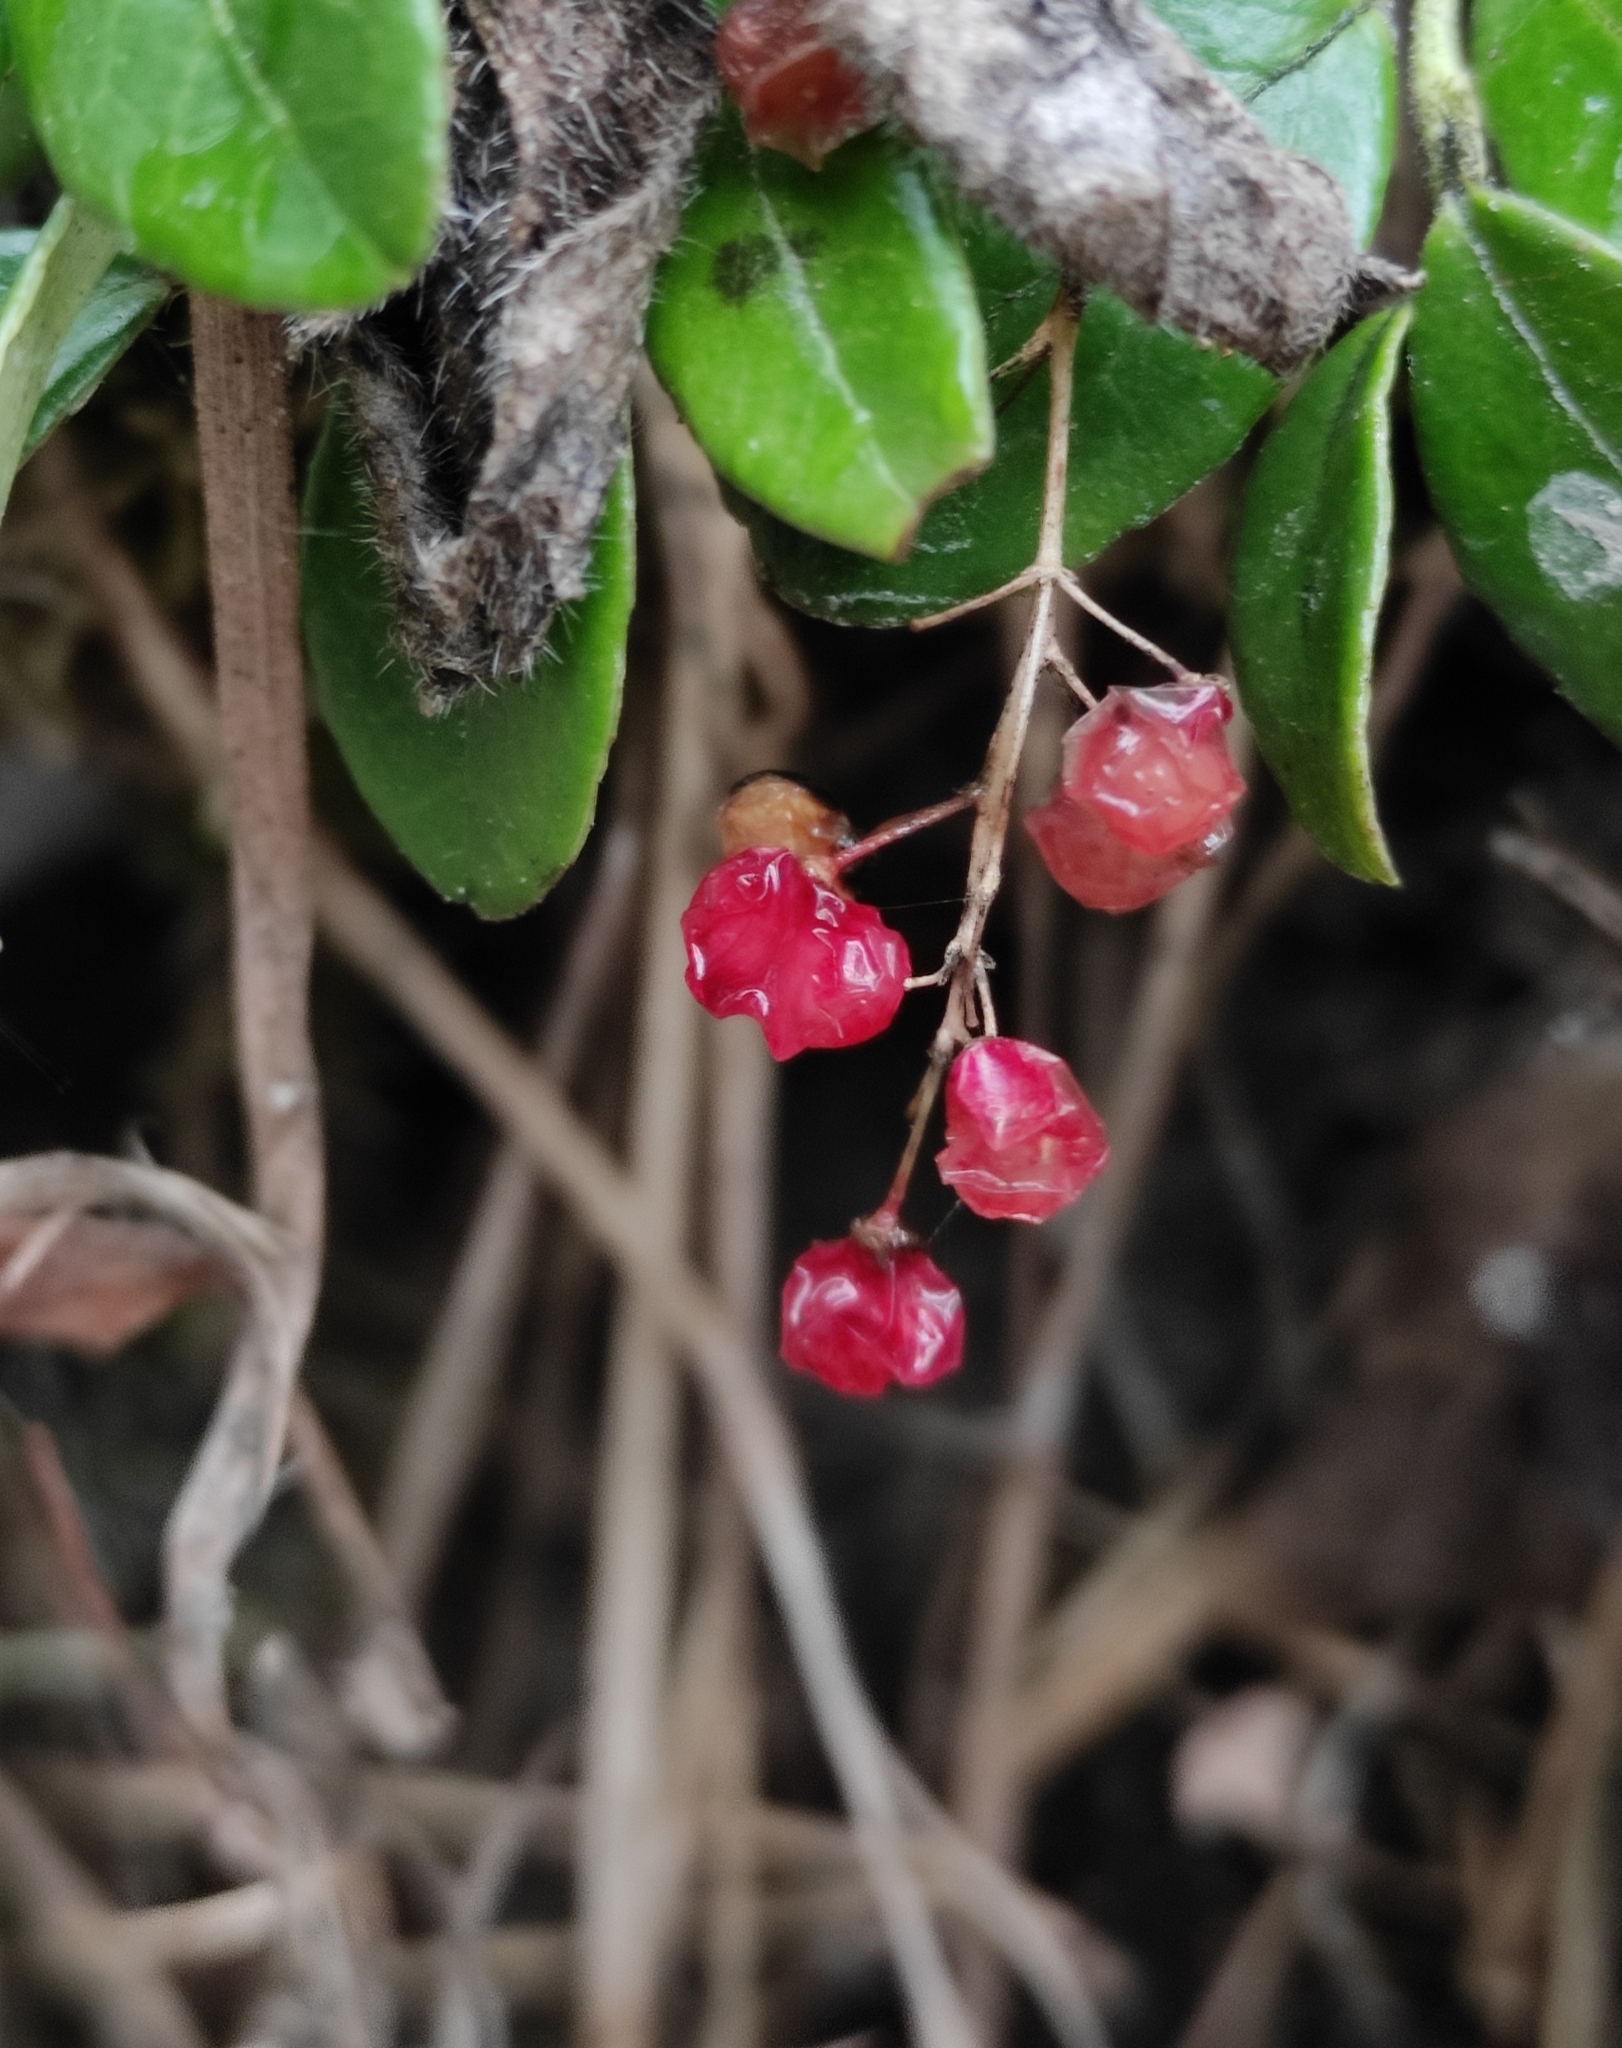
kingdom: Plantae
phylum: Tracheophyta
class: Liliopsida
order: Asparagales
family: Asparagaceae
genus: Maianthemum
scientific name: Maianthemum bifolium
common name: May lily
